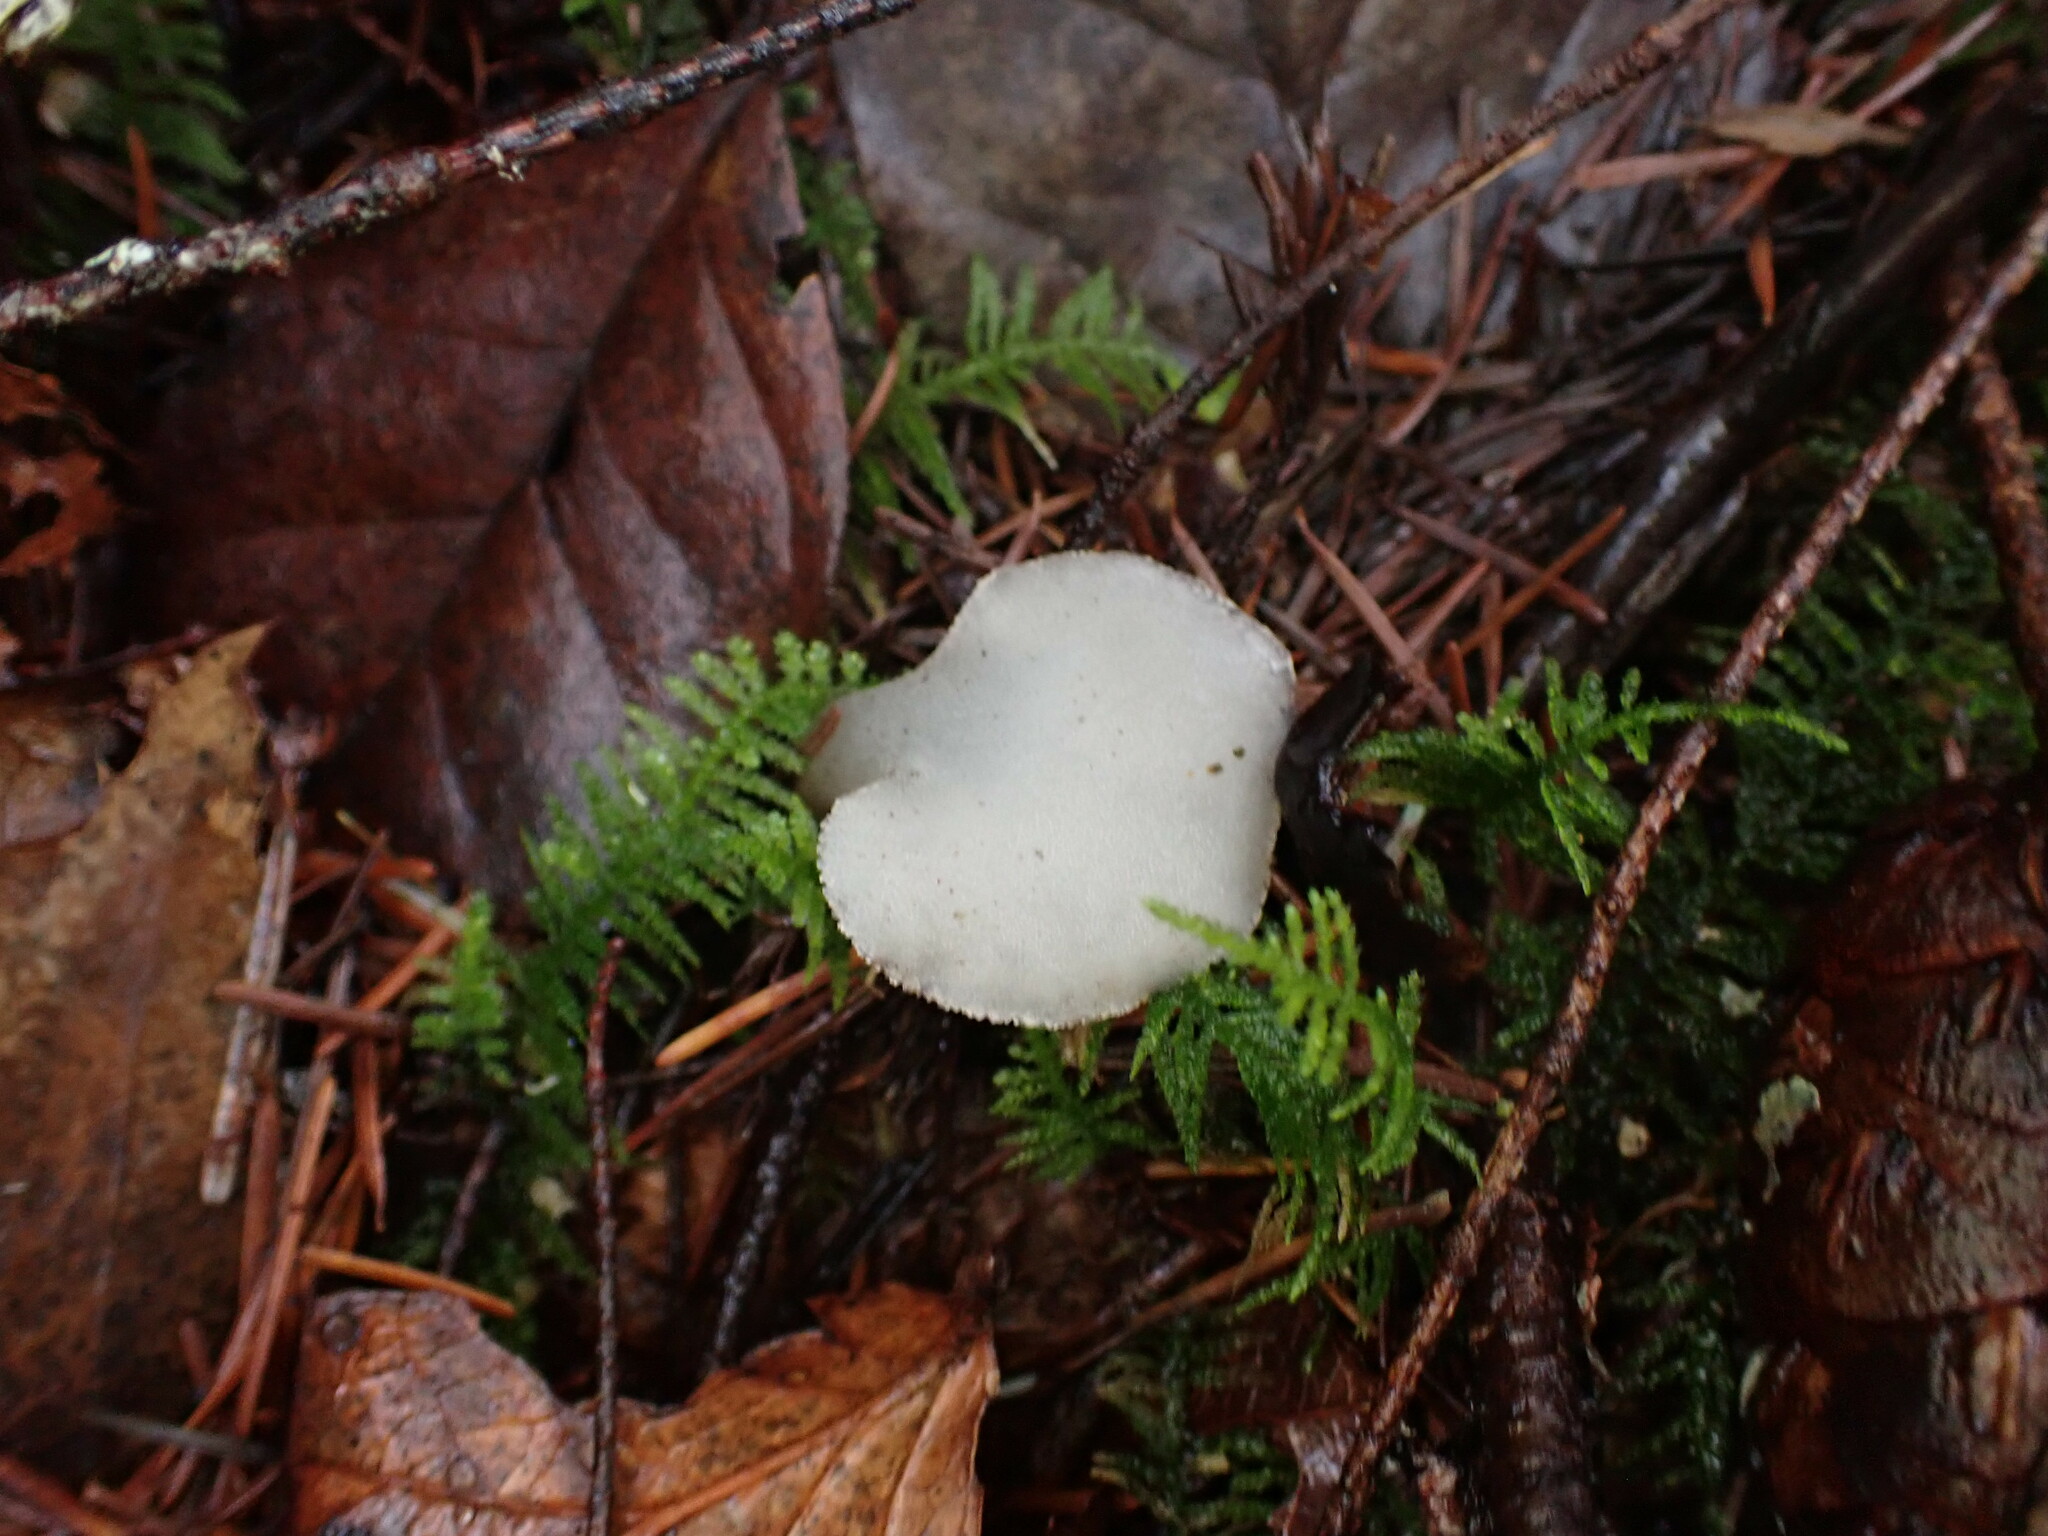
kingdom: Fungi
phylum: Basidiomycota
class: Agaricomycetes
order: Auriculariales
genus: Pseudohydnum
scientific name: Pseudohydnum gelatinosum
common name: Jelly tongue
